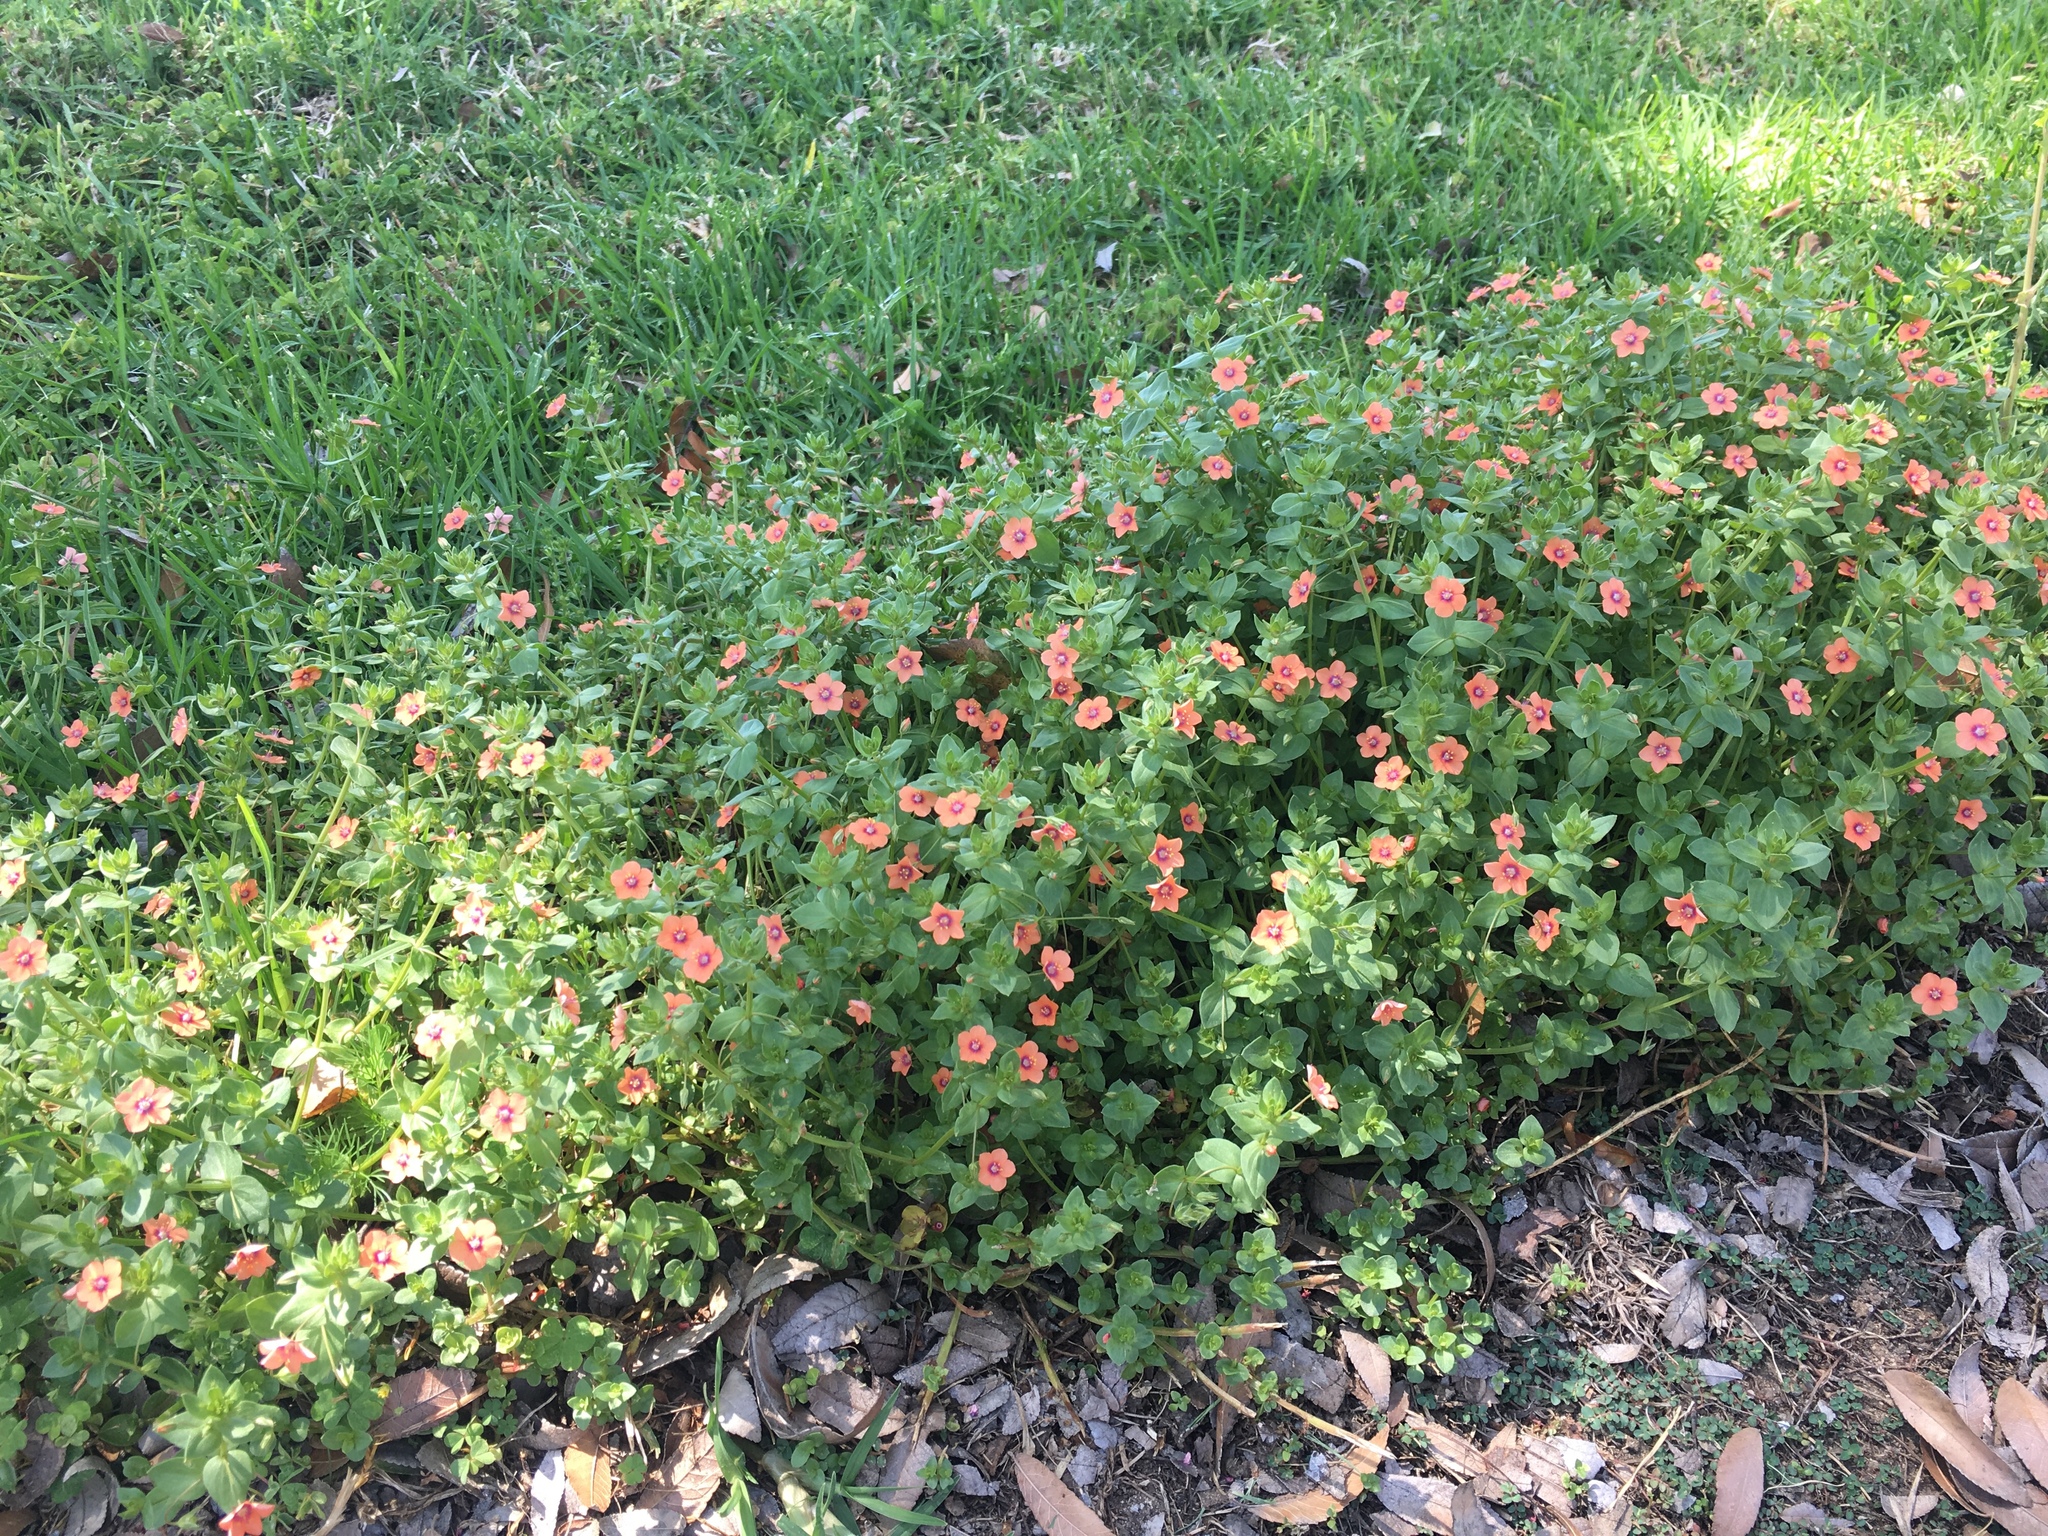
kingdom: Plantae
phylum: Tracheophyta
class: Magnoliopsida
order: Ericales
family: Primulaceae
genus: Lysimachia
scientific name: Lysimachia arvensis
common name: Scarlet pimpernel
